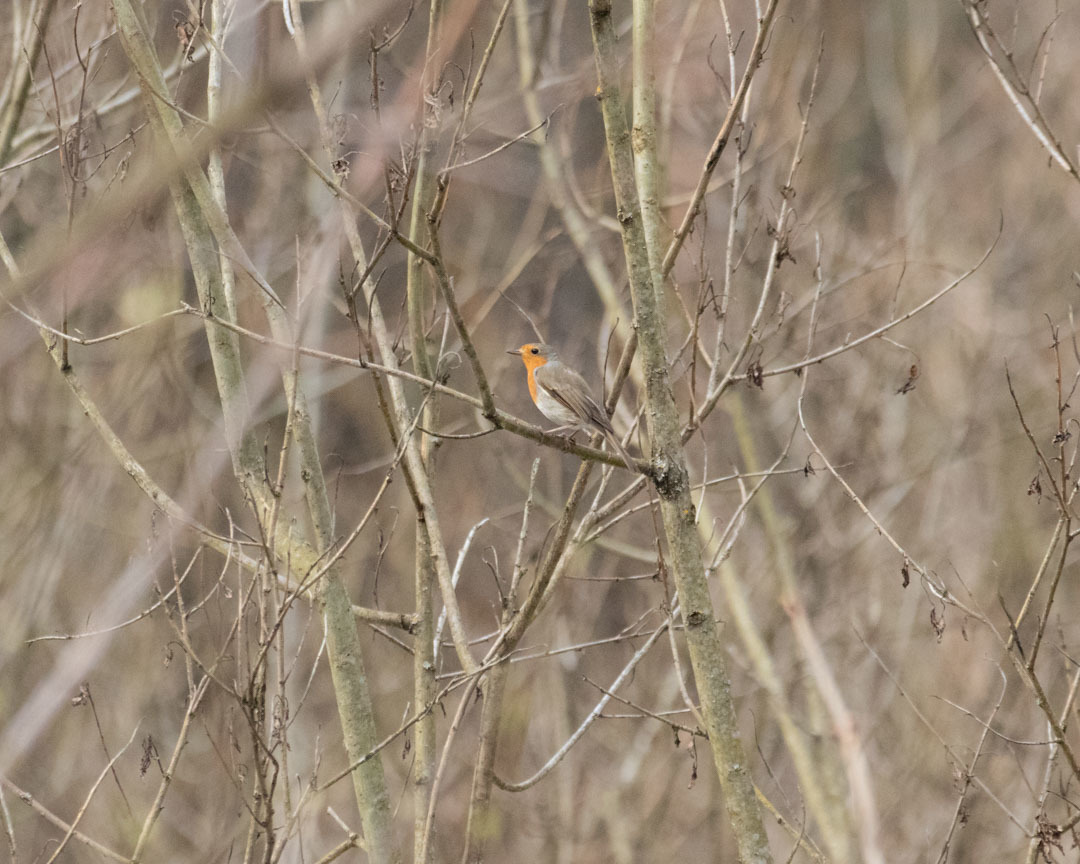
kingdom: Animalia
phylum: Chordata
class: Aves
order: Passeriformes
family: Muscicapidae
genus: Erithacus
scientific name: Erithacus rubecula
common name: European robin
